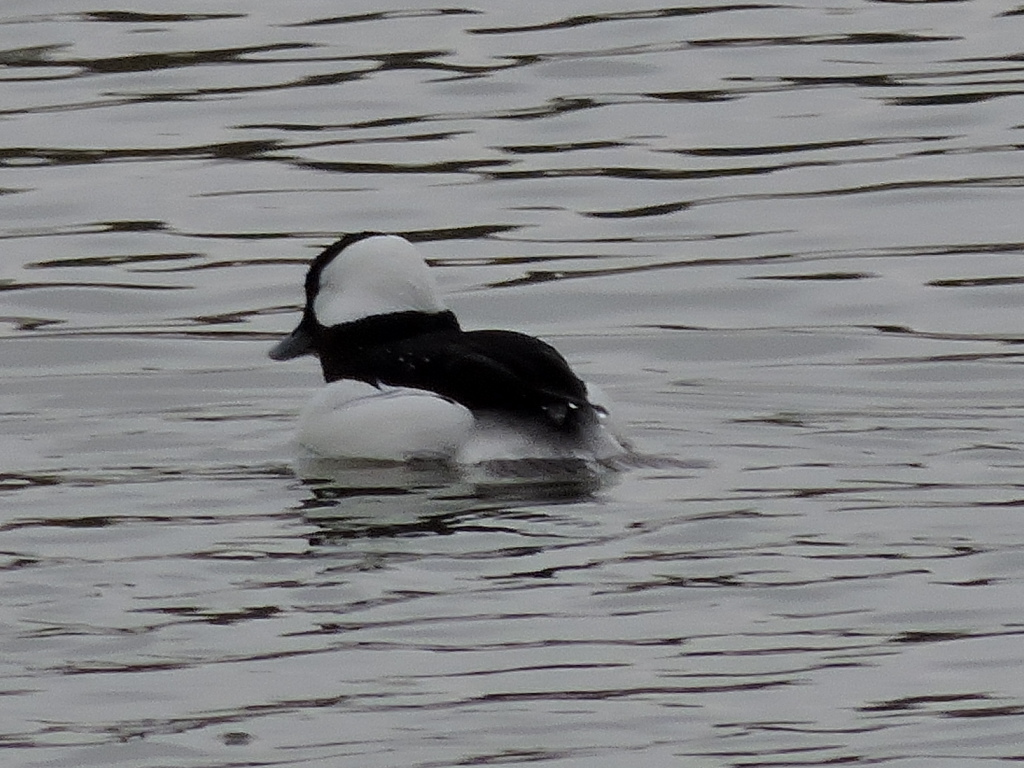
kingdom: Animalia
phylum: Chordata
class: Aves
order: Anseriformes
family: Anatidae
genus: Bucephala
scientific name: Bucephala albeola
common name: Bufflehead
